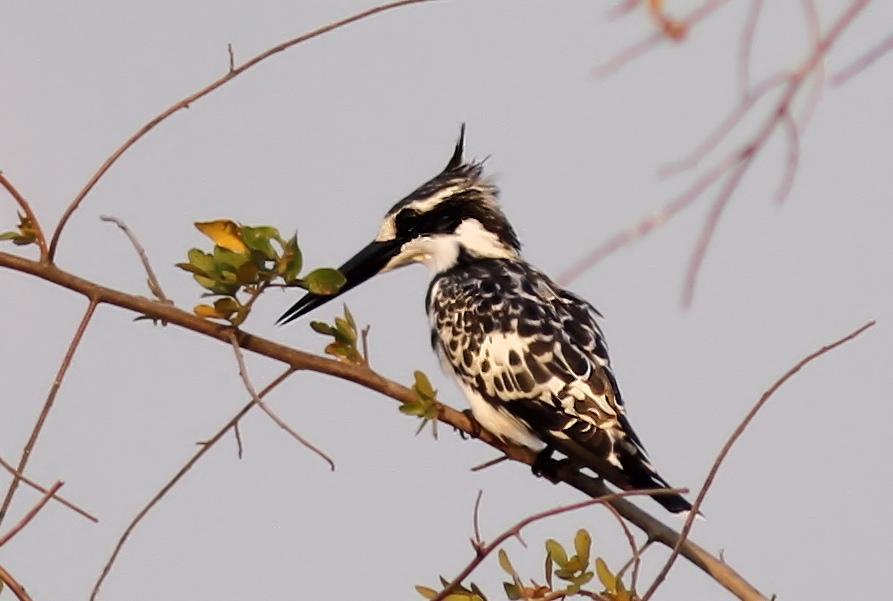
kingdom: Animalia
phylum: Chordata
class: Aves
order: Coraciiformes
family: Alcedinidae
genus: Ceryle
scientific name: Ceryle rudis
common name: Pied kingfisher
